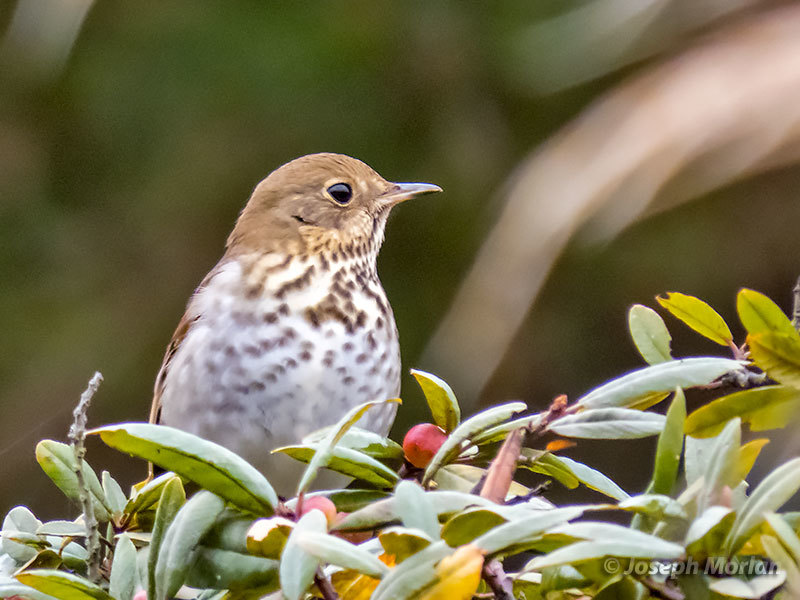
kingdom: Animalia
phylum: Chordata
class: Aves
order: Passeriformes
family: Turdidae
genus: Catharus
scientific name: Catharus guttatus
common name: Hermit thrush
